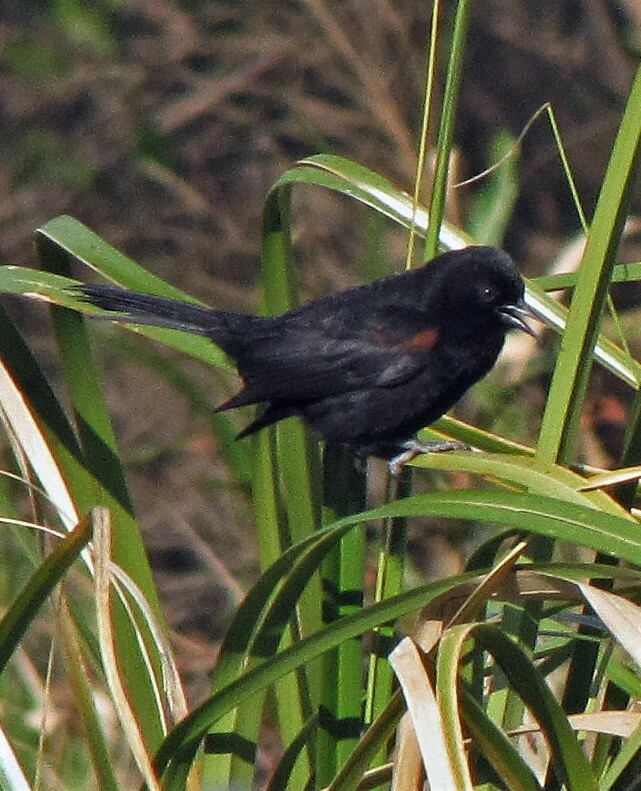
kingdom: Animalia
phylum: Chordata
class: Aves
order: Passeriformes
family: Icteridae
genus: Icterus
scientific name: Icterus cayanensis
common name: Epaulet oriole
